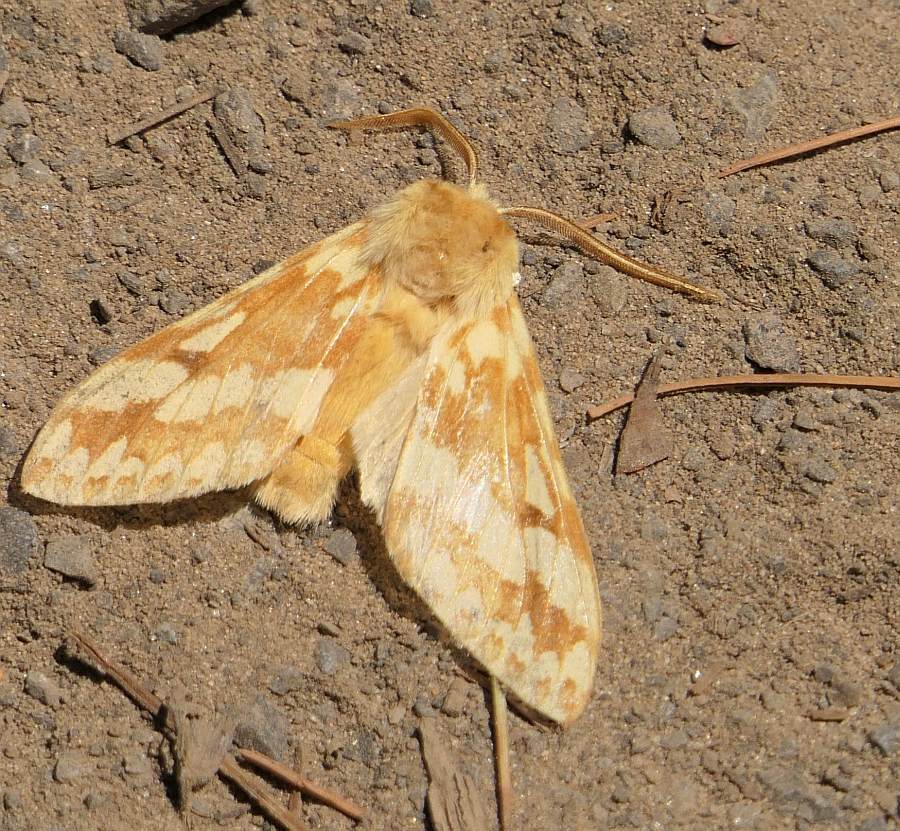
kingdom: Animalia
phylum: Arthropoda
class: Insecta
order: Lepidoptera
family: Erebidae
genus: Lophocampa
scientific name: Lophocampa maculata
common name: Spotted tussock moth
